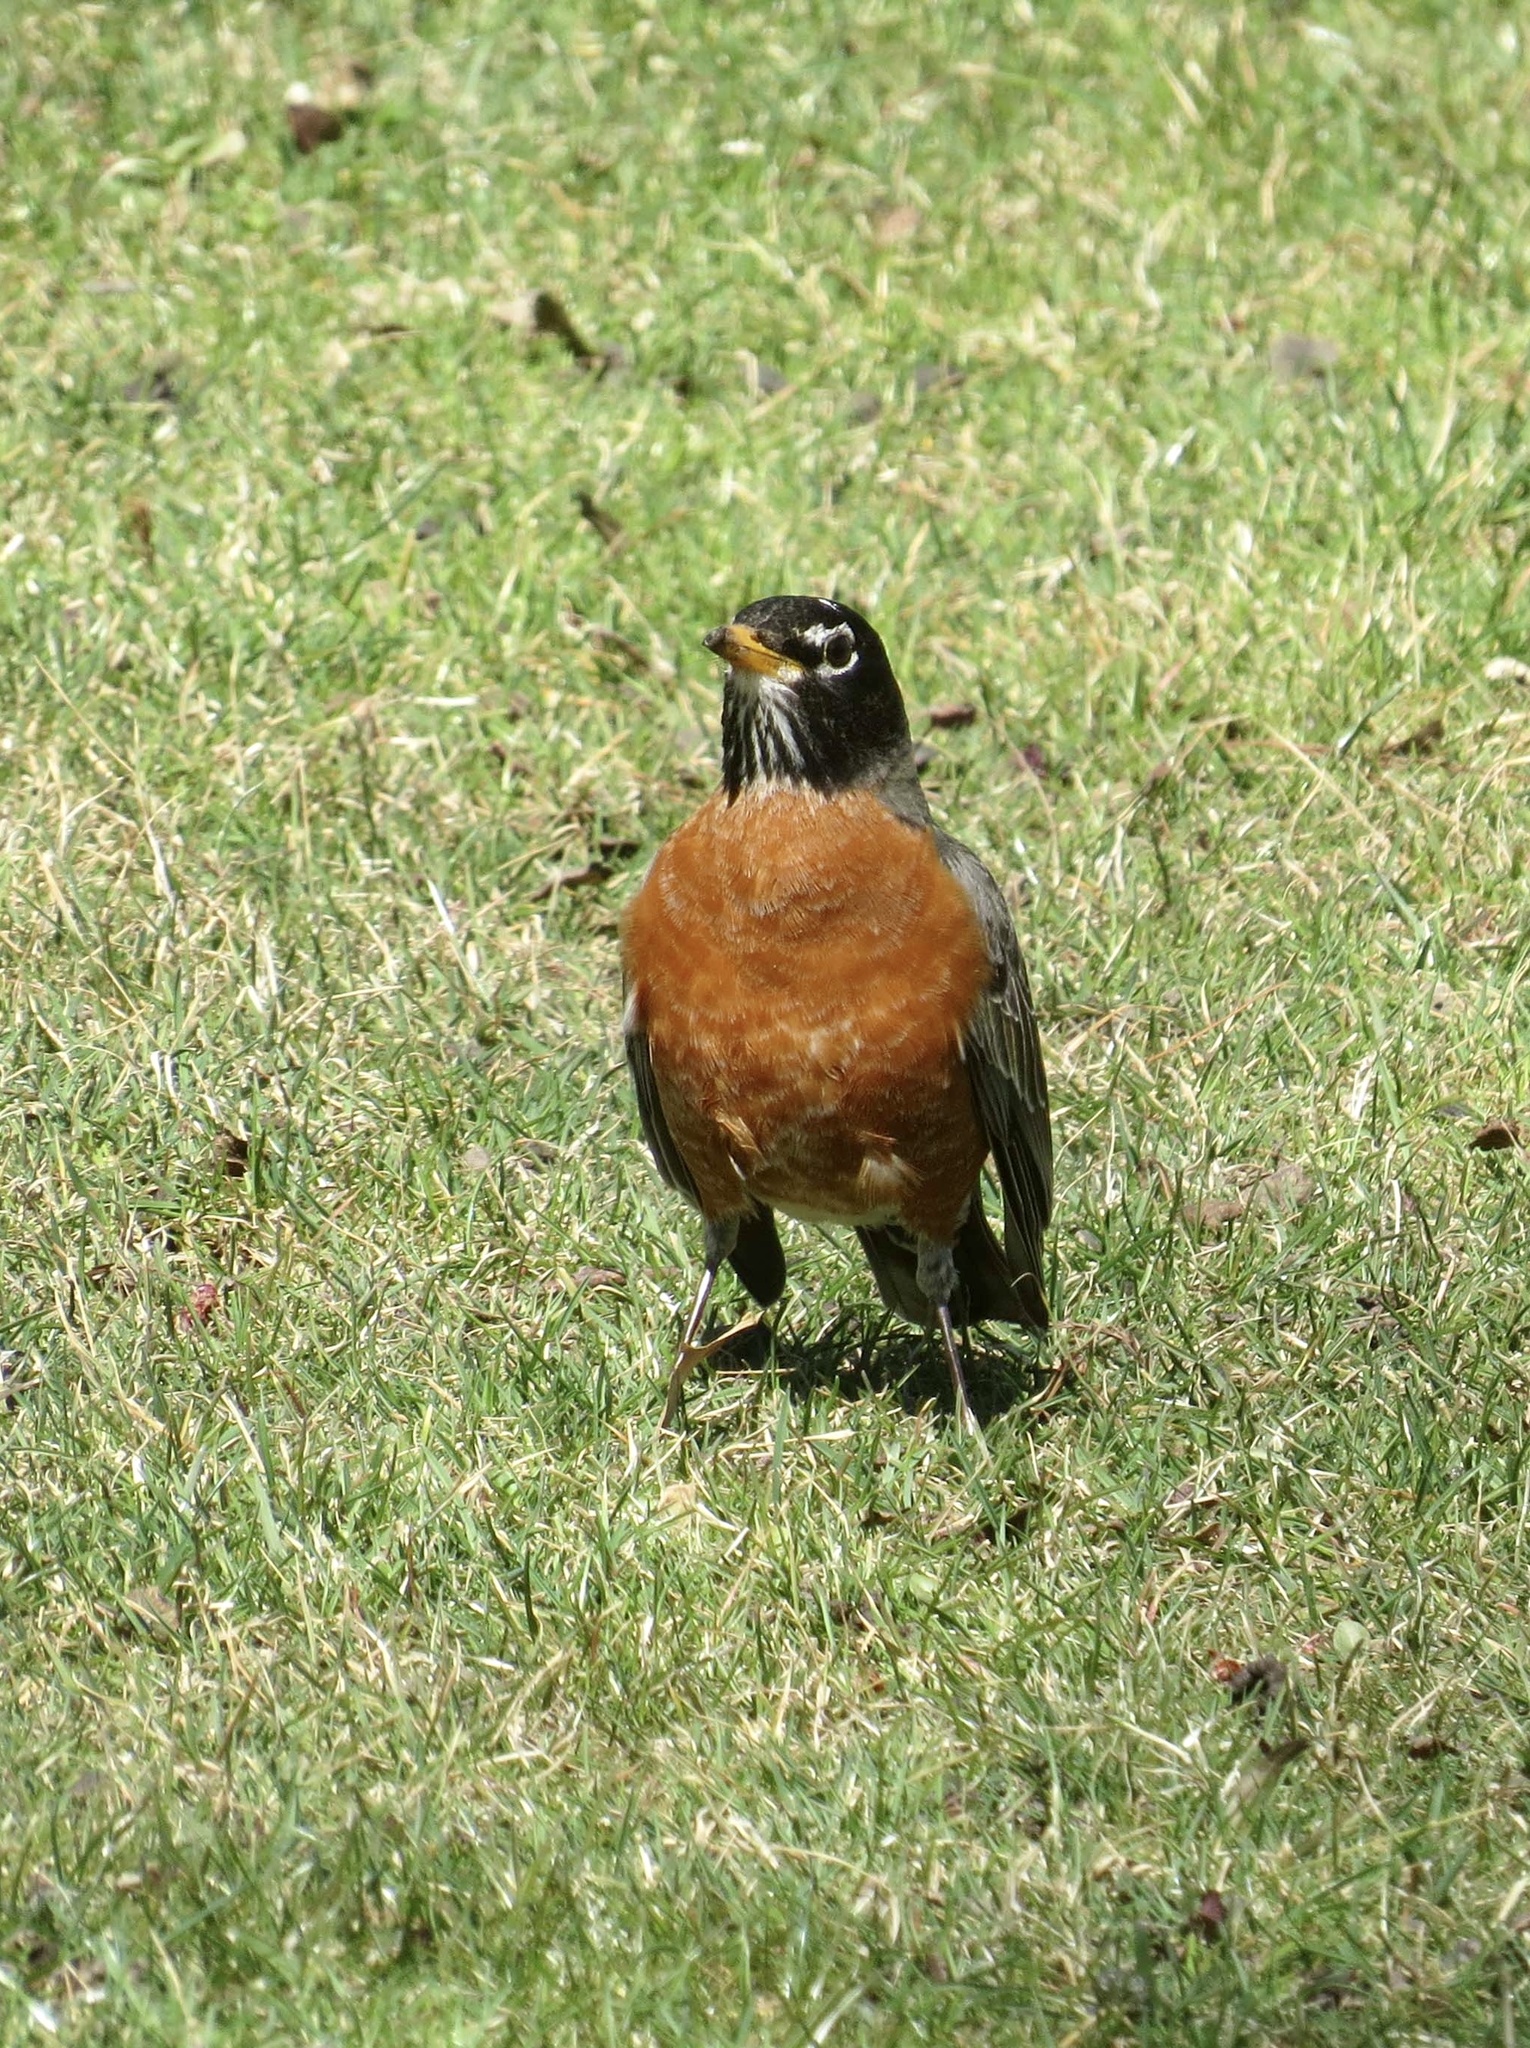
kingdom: Animalia
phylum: Chordata
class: Aves
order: Passeriformes
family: Turdidae
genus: Turdus
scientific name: Turdus migratorius
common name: American robin
